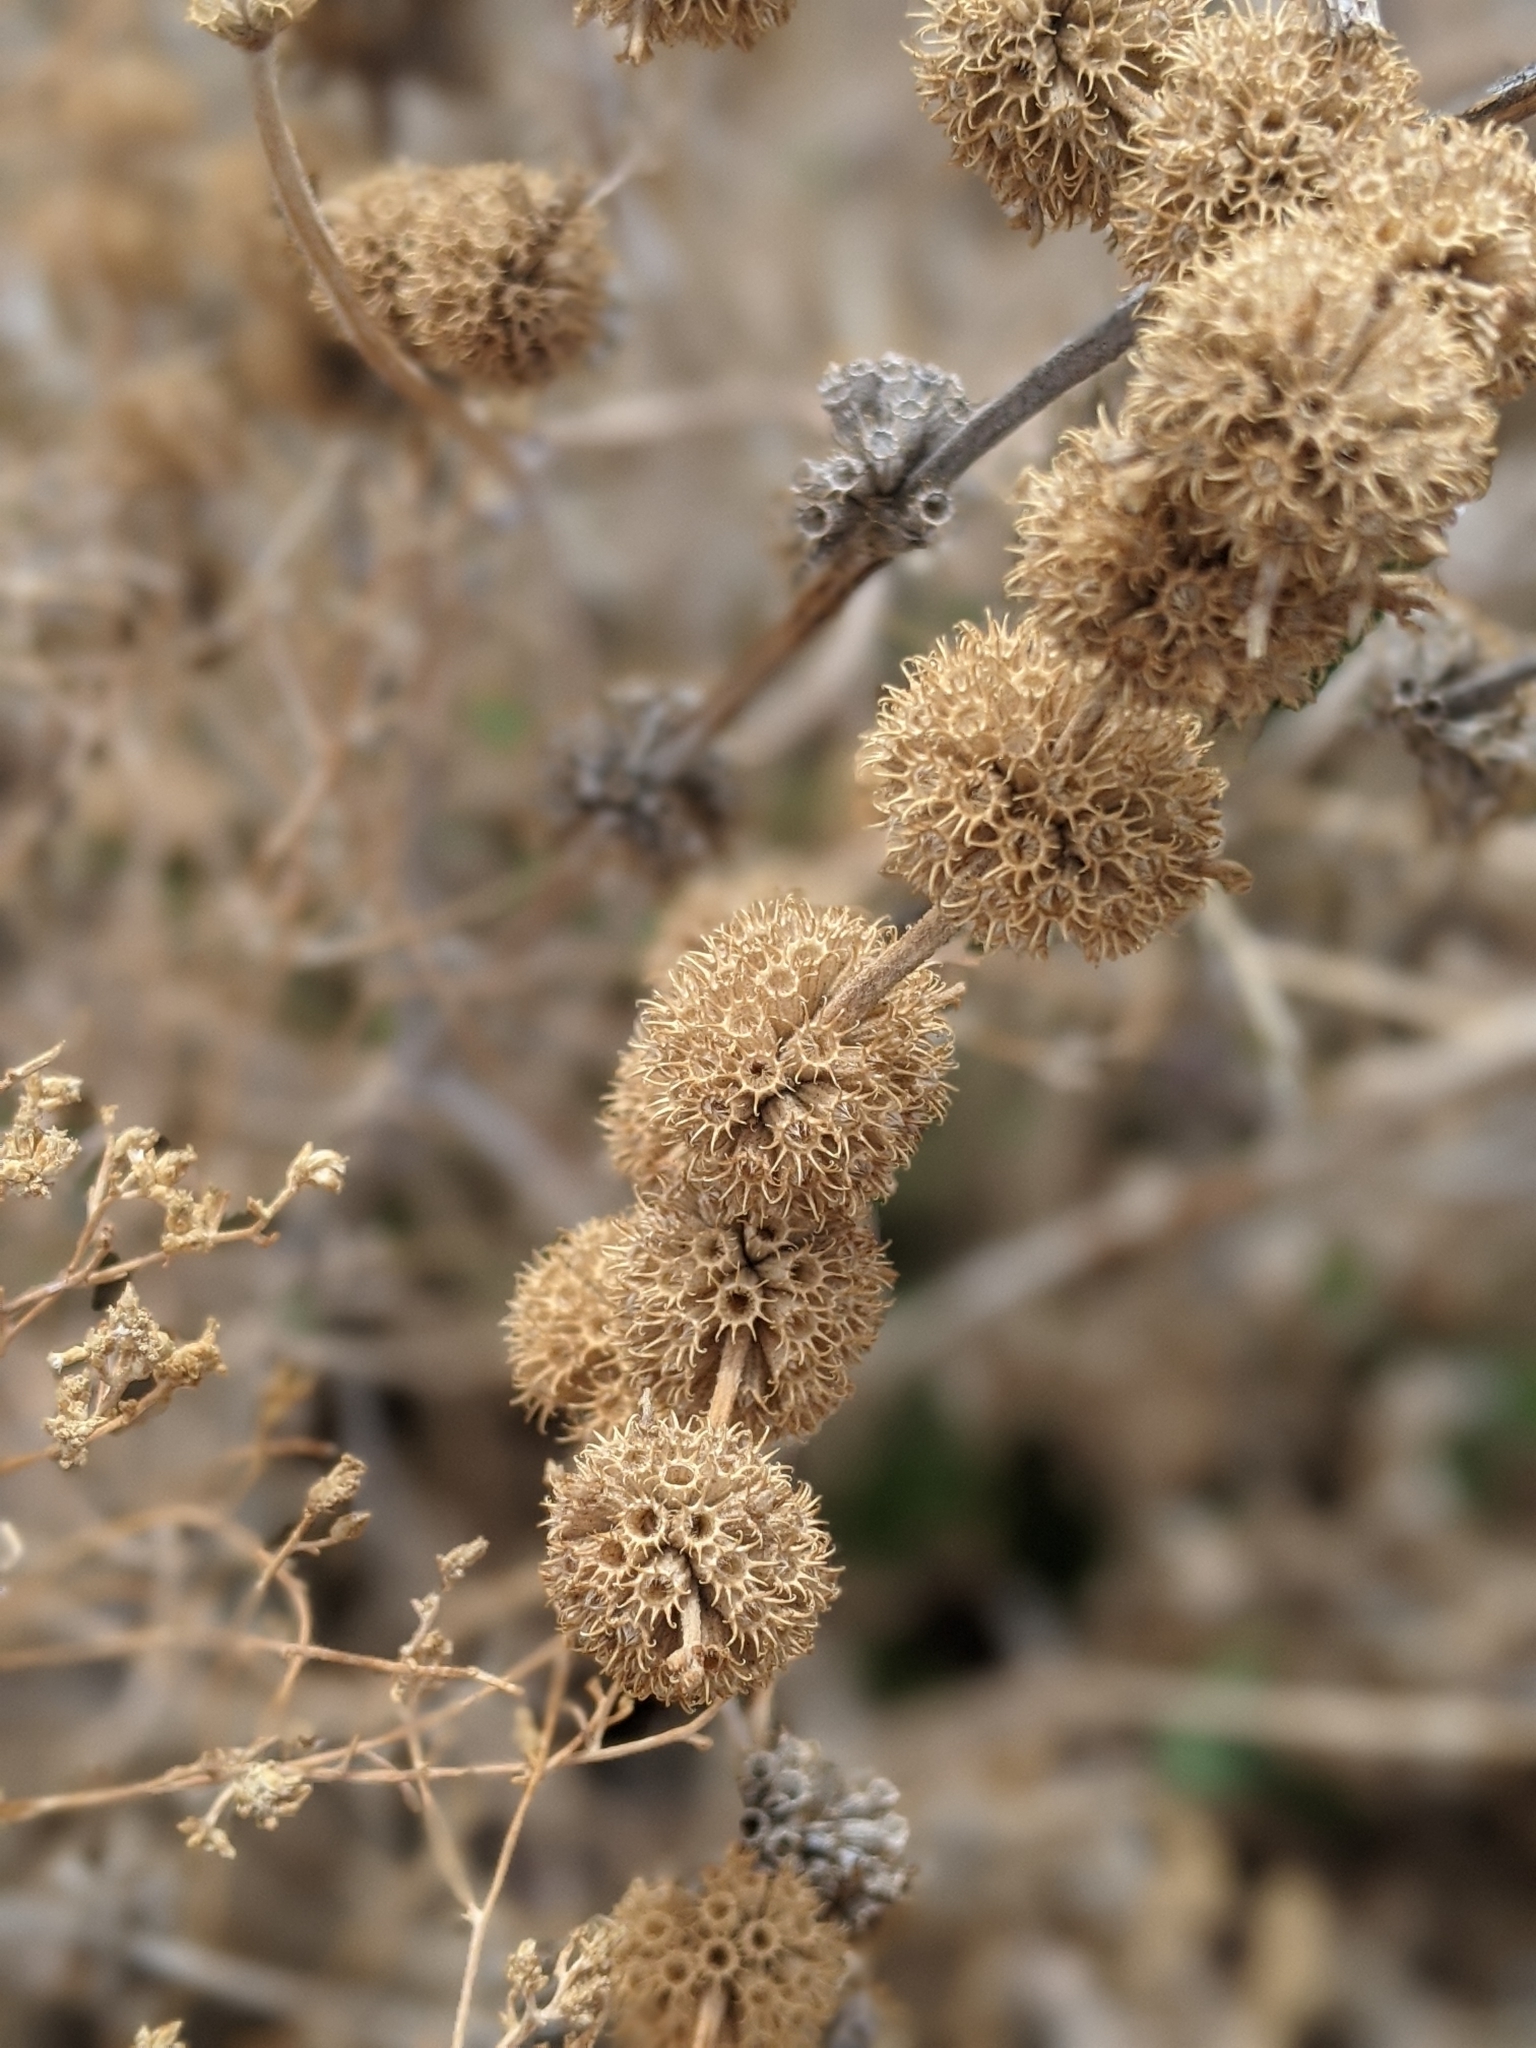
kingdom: Plantae
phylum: Tracheophyta
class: Magnoliopsida
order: Lamiales
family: Lamiaceae
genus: Marrubium
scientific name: Marrubium vulgare
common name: Horehound
